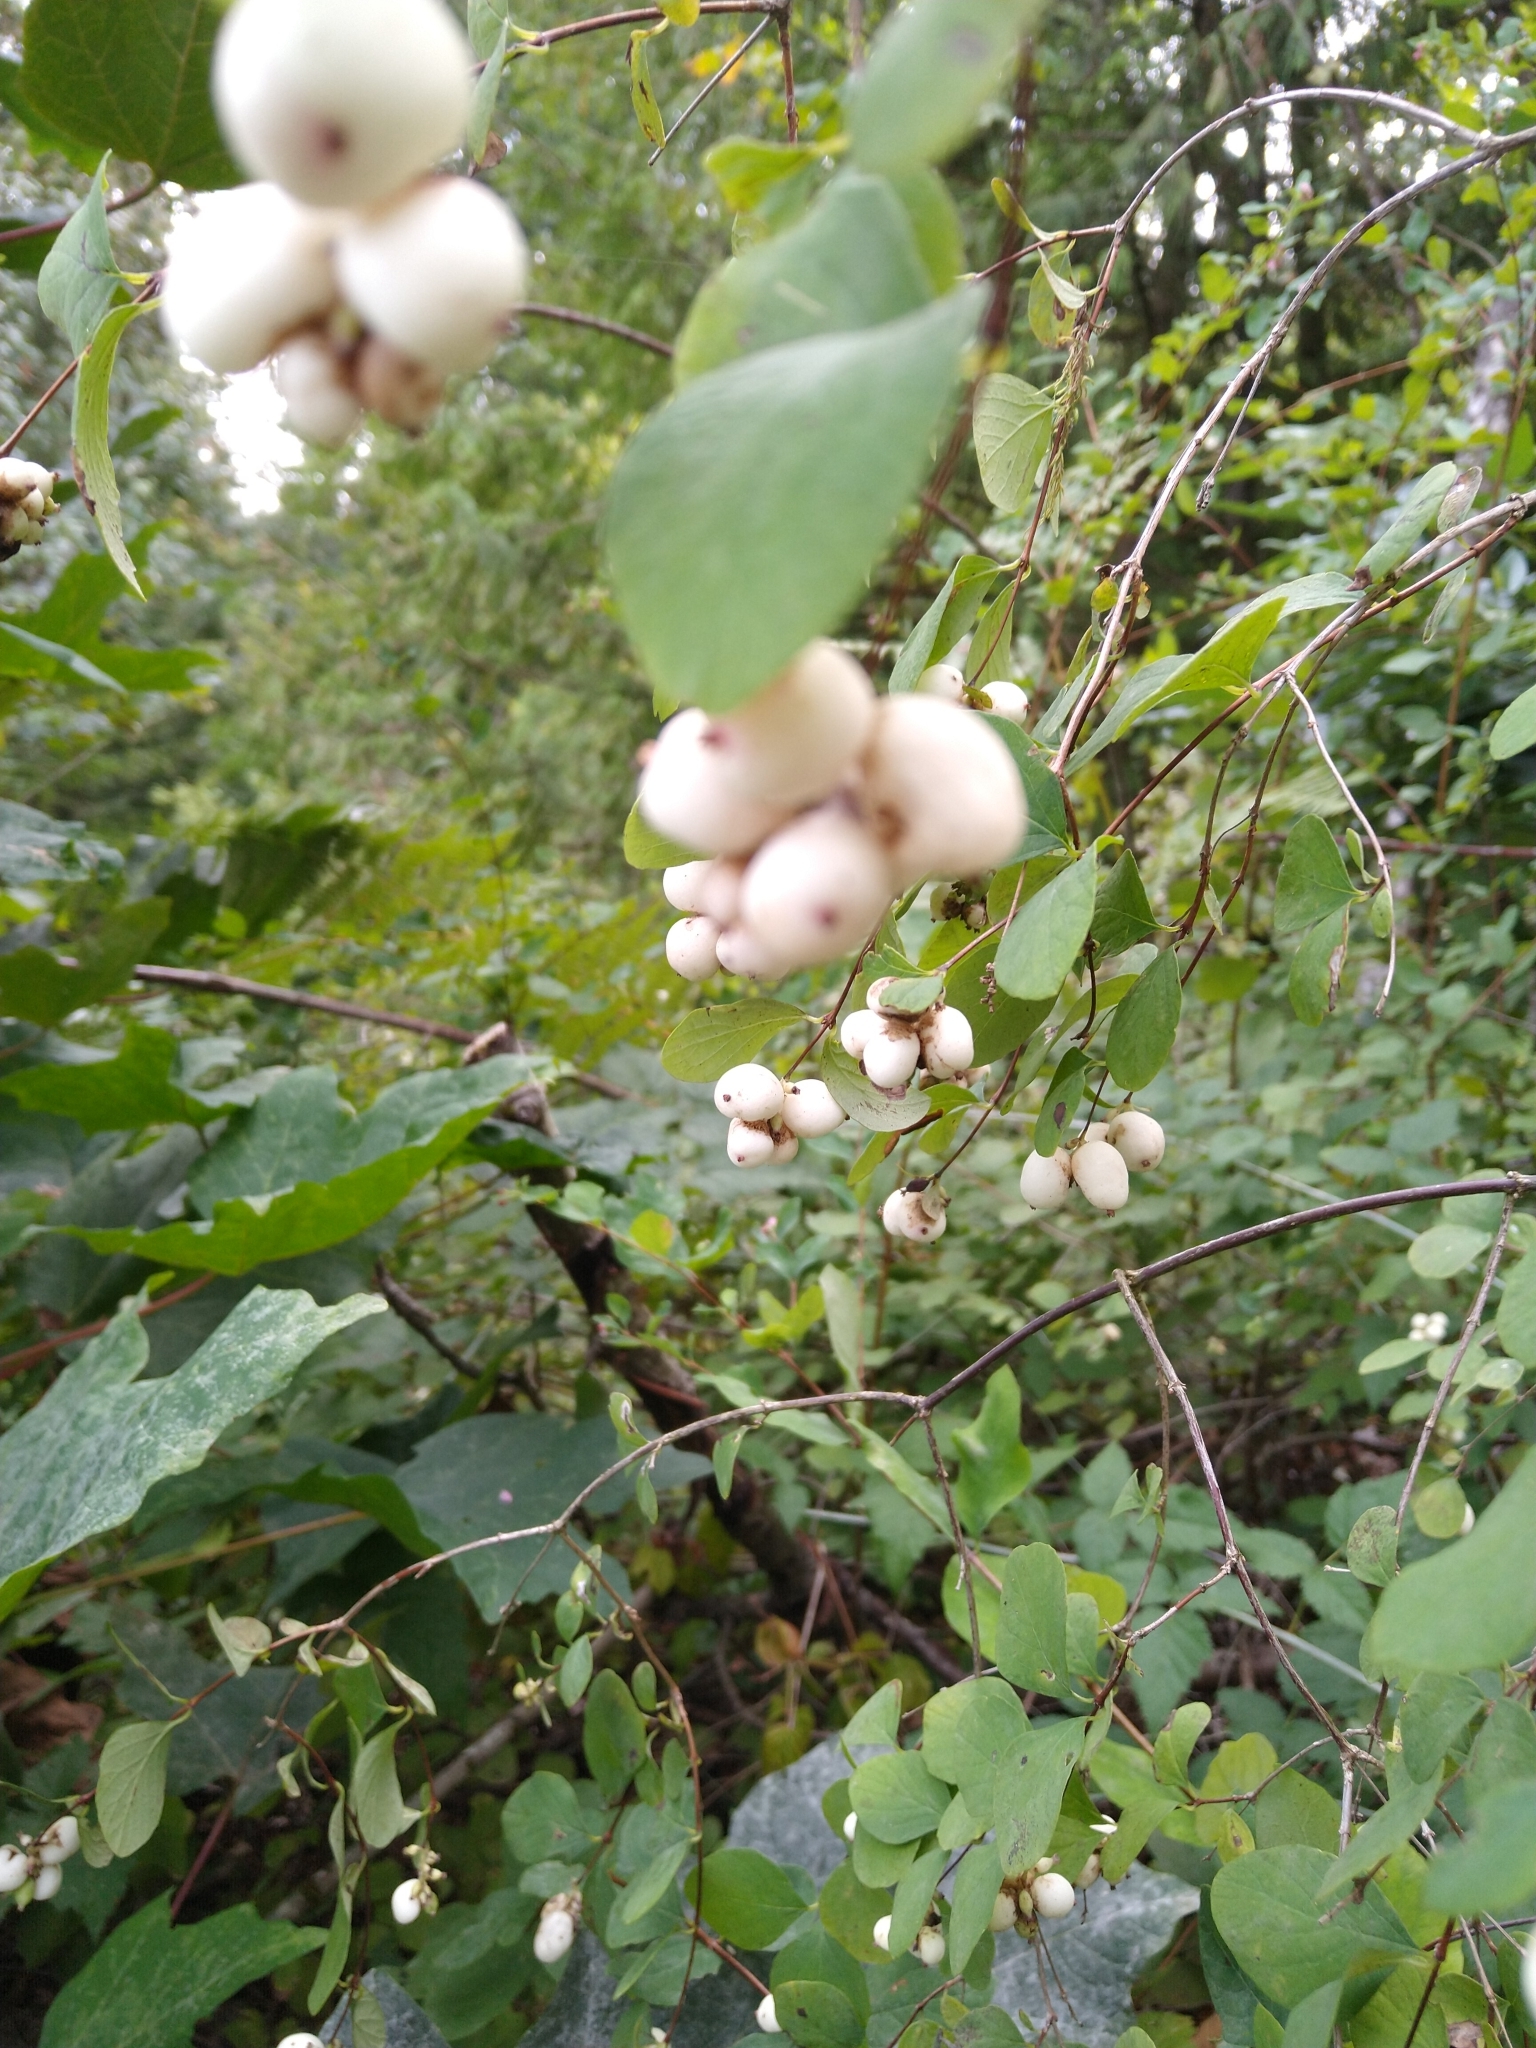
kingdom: Plantae
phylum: Tracheophyta
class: Magnoliopsida
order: Dipsacales
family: Caprifoliaceae
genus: Symphoricarpos
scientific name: Symphoricarpos albus
